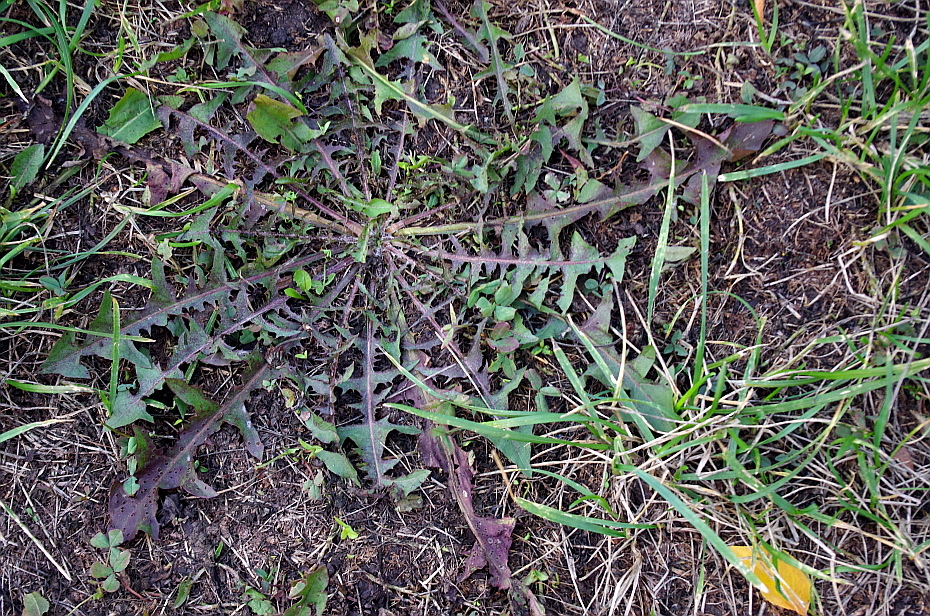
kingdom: Plantae
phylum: Tracheophyta
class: Magnoliopsida
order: Asterales
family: Asteraceae
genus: Taraxacum
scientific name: Taraxacum officinale
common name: Common dandelion
